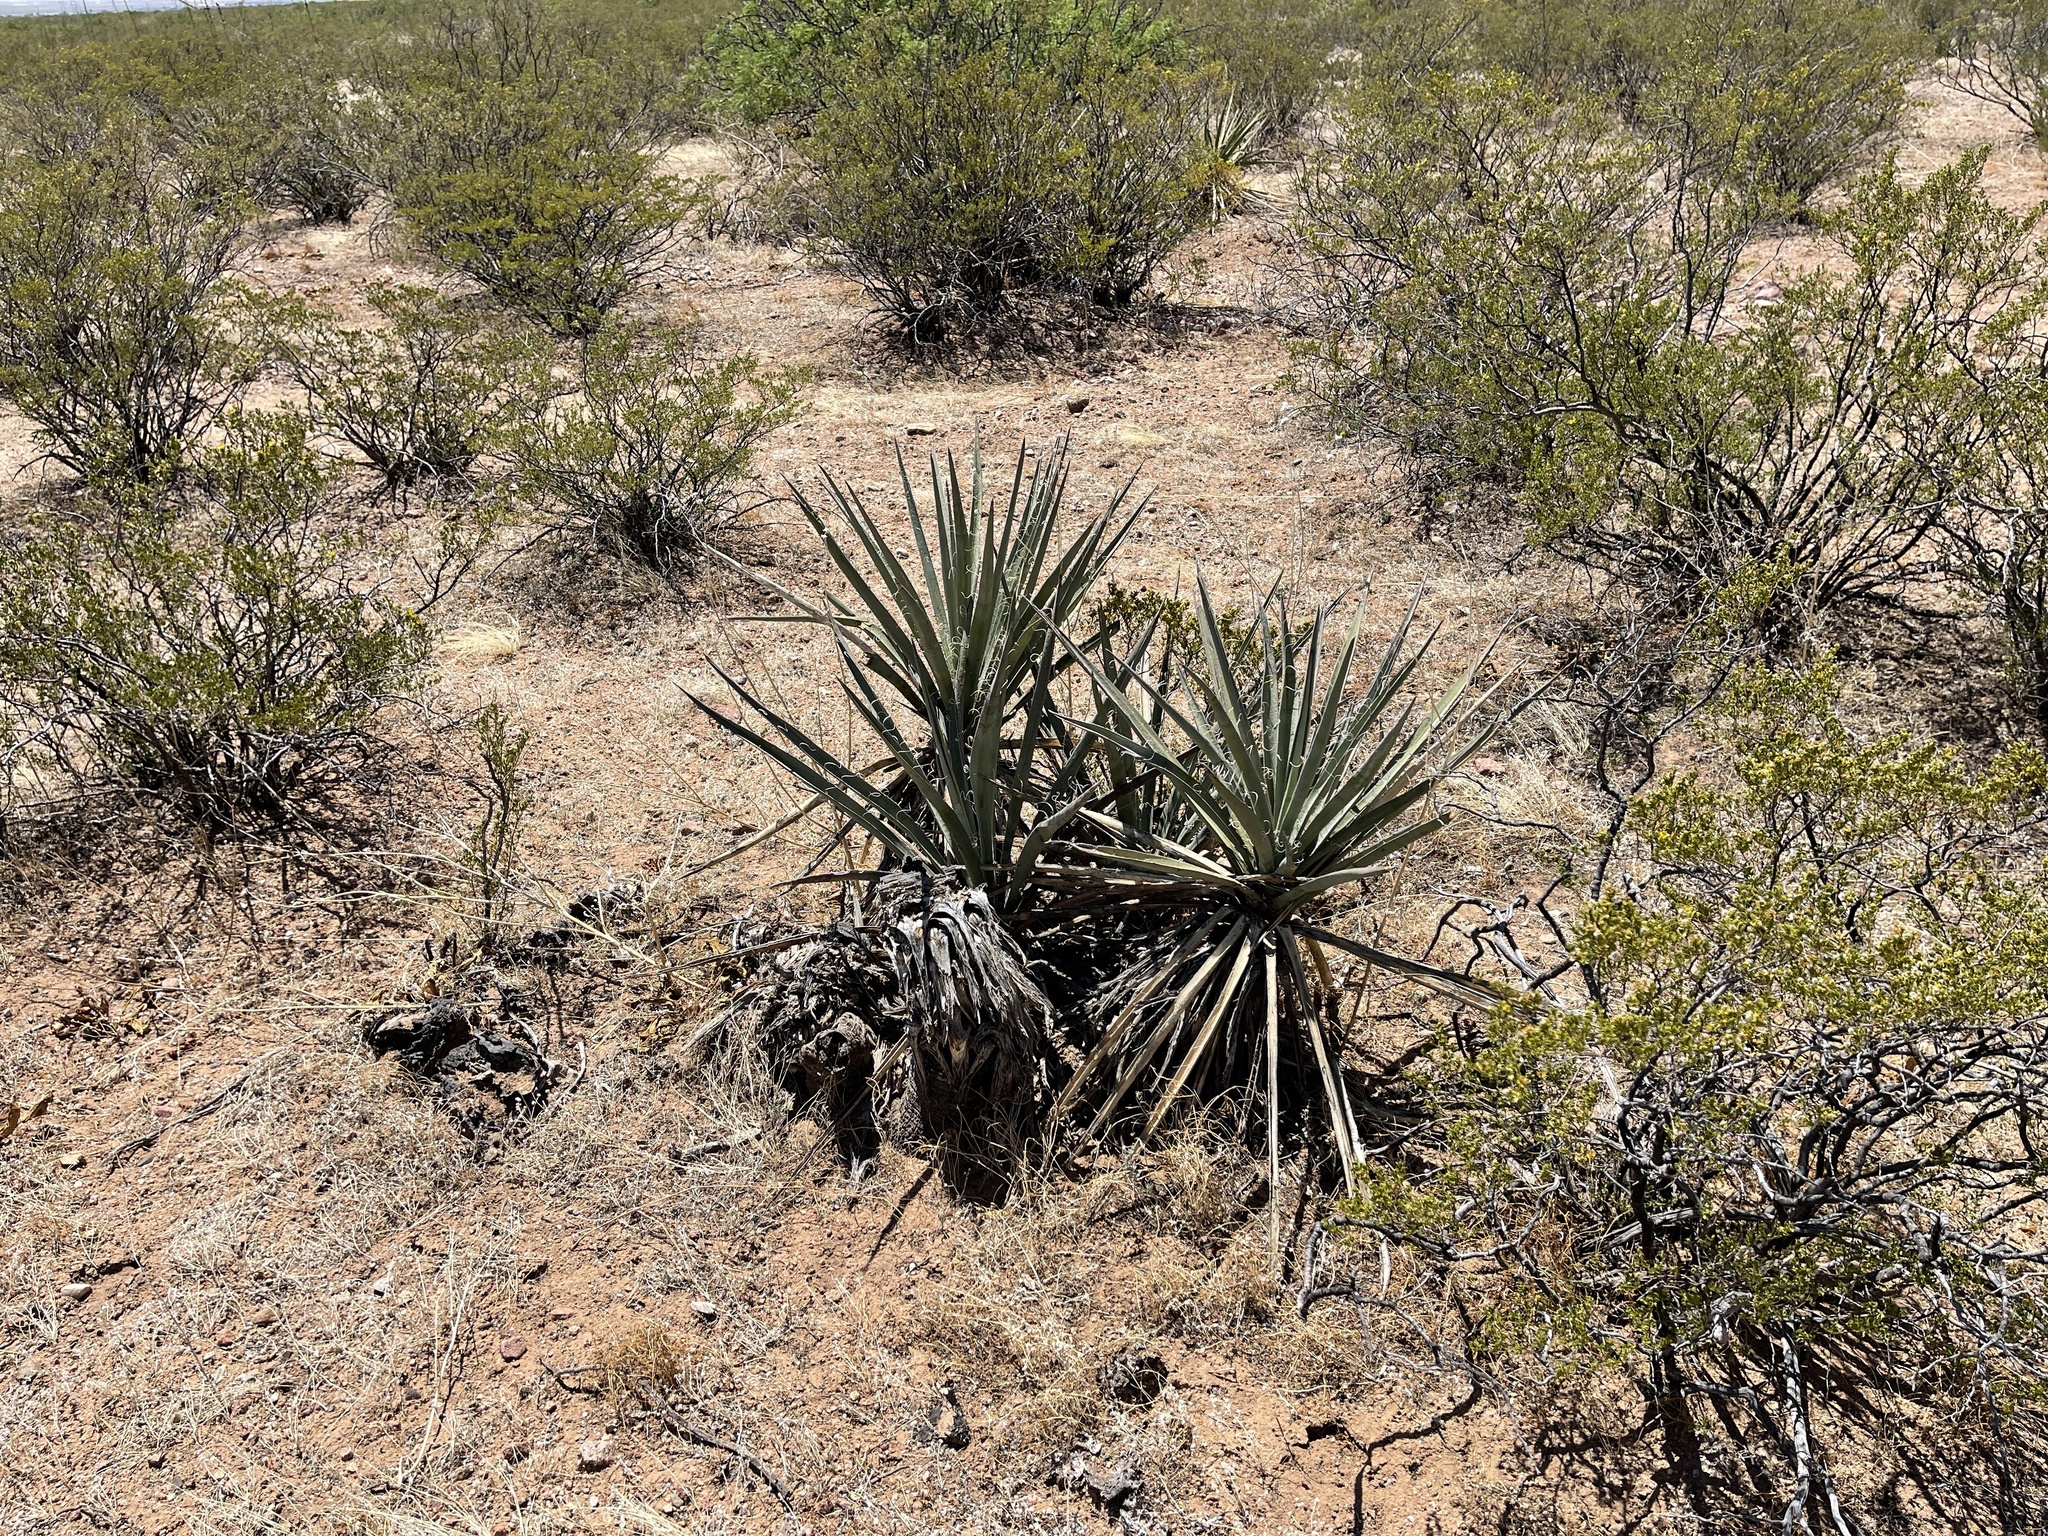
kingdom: Plantae
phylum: Tracheophyta
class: Liliopsida
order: Asparagales
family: Asparagaceae
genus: Yucca
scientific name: Yucca baccata
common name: Banana yucca
